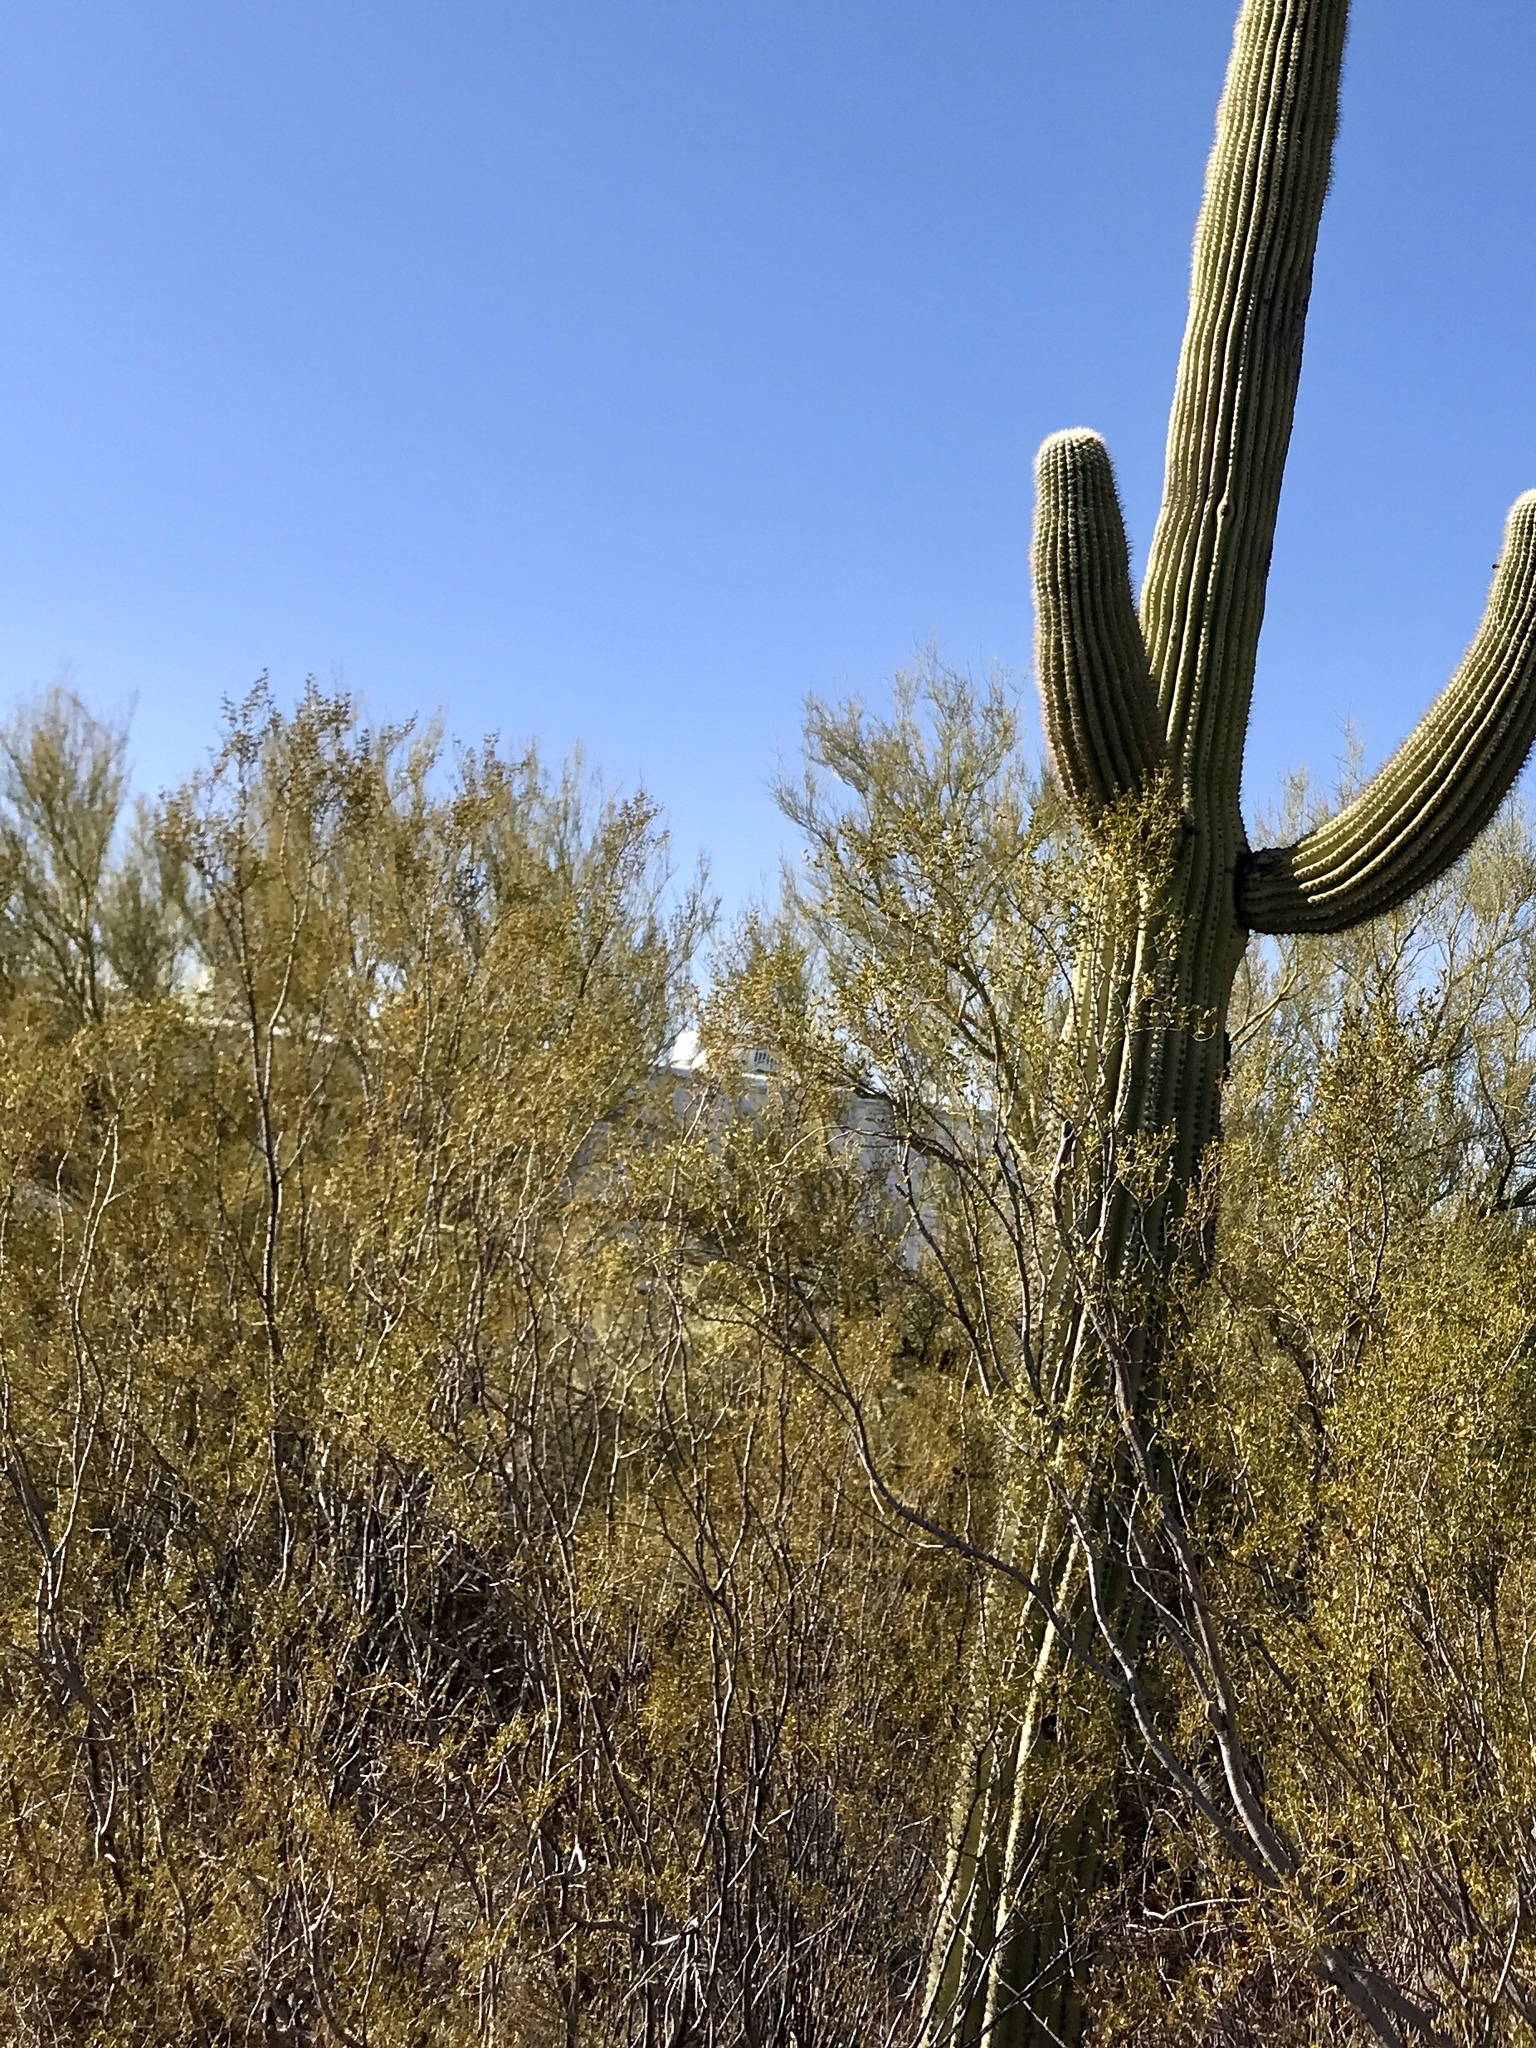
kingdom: Plantae
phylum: Tracheophyta
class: Magnoliopsida
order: Zygophyllales
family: Zygophyllaceae
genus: Larrea
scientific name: Larrea tridentata
